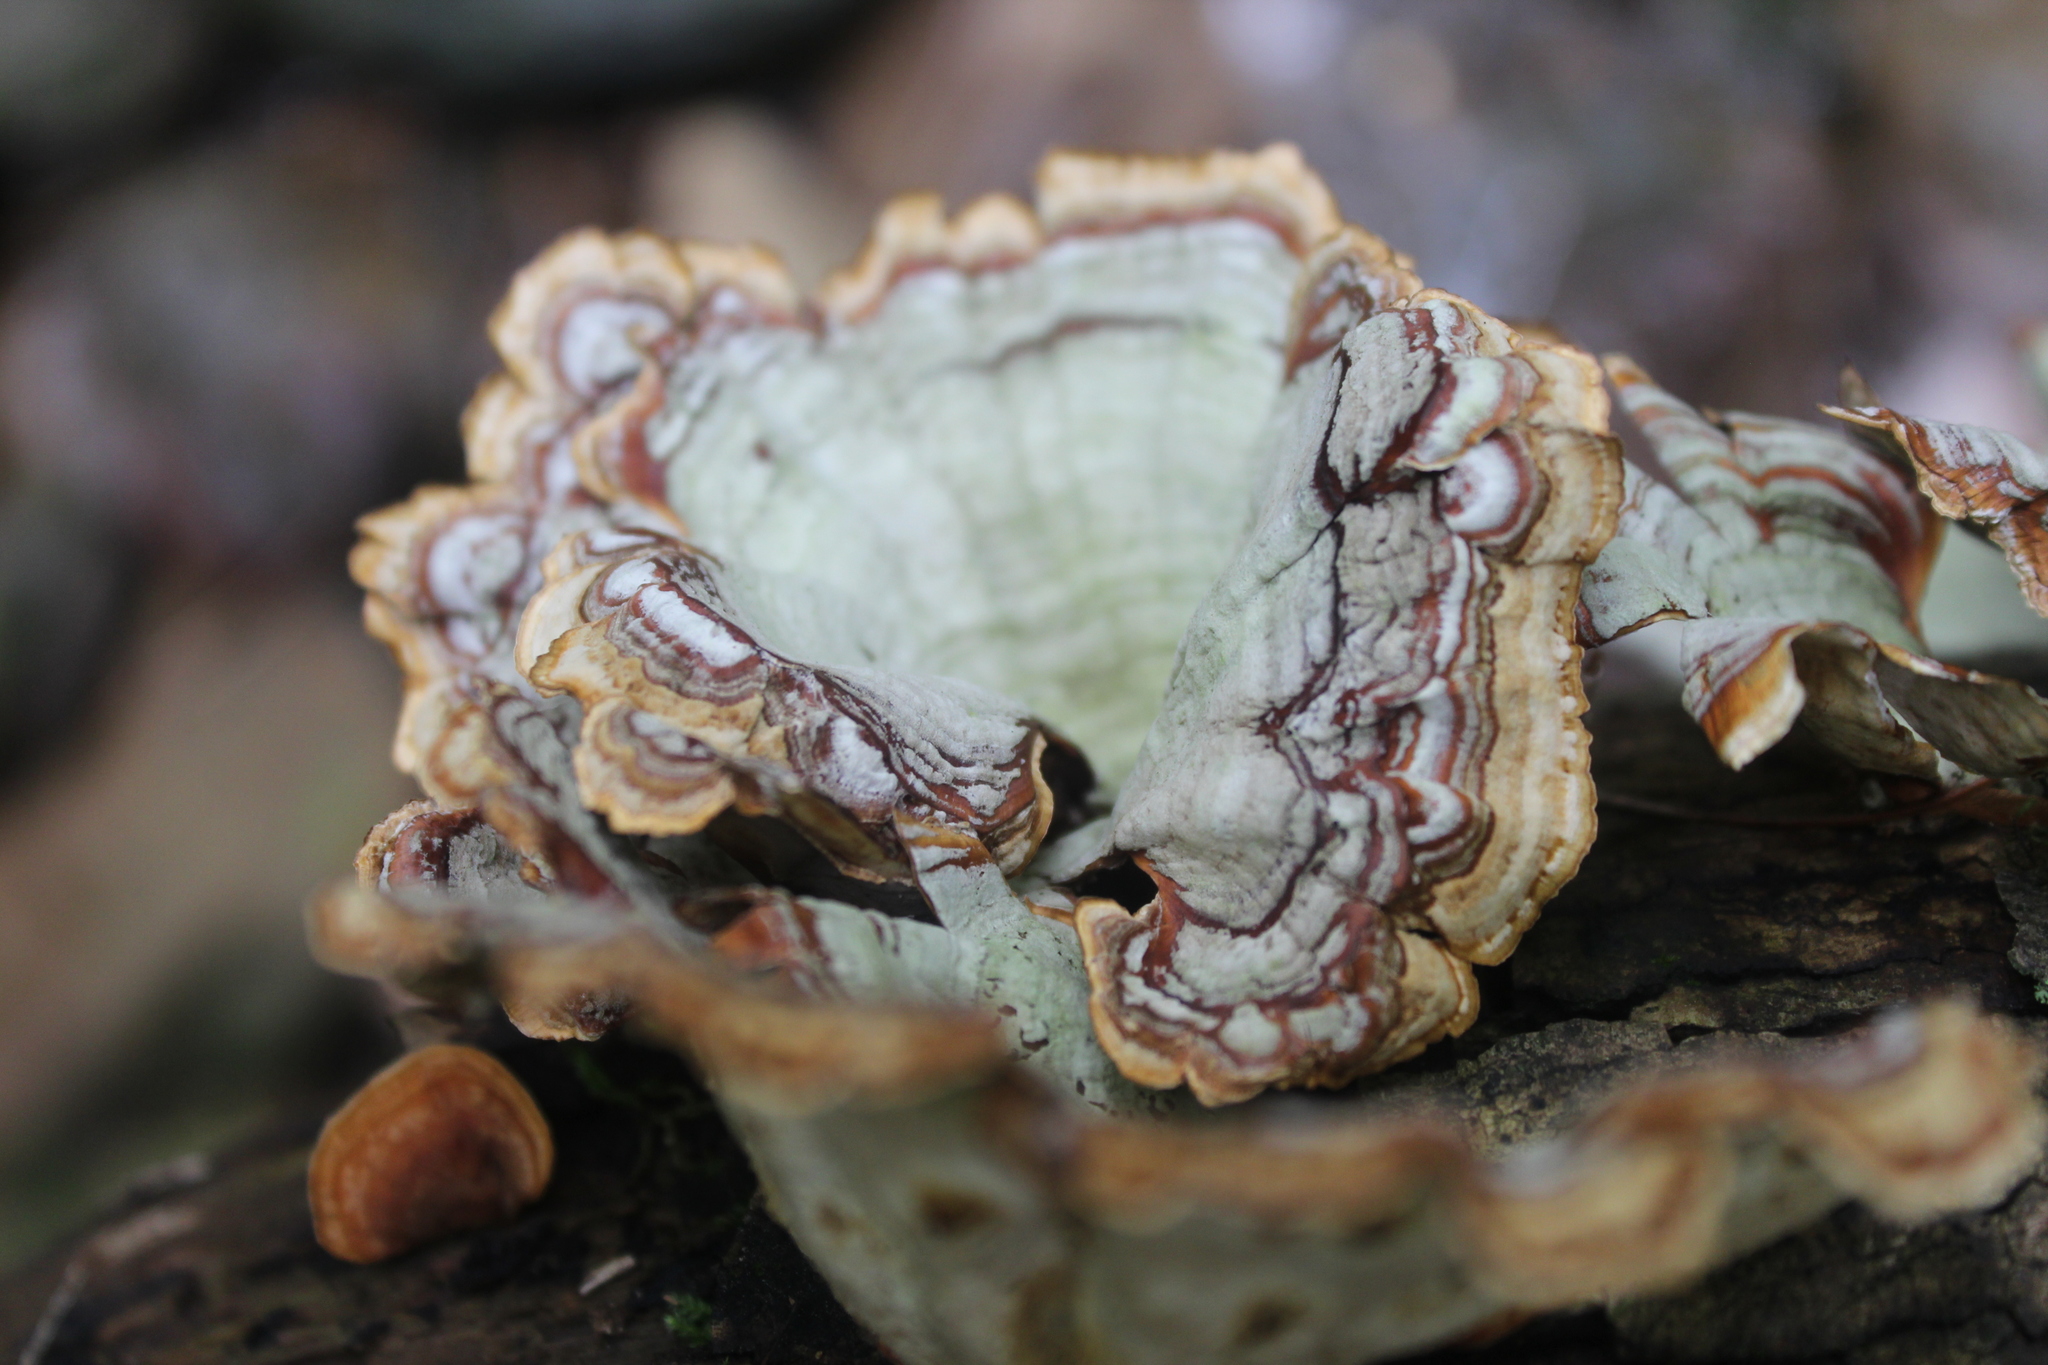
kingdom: Fungi
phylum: Basidiomycota
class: Agaricomycetes
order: Russulales
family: Stereaceae
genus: Stereum
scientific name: Stereum ostrea
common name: False turkeytail
